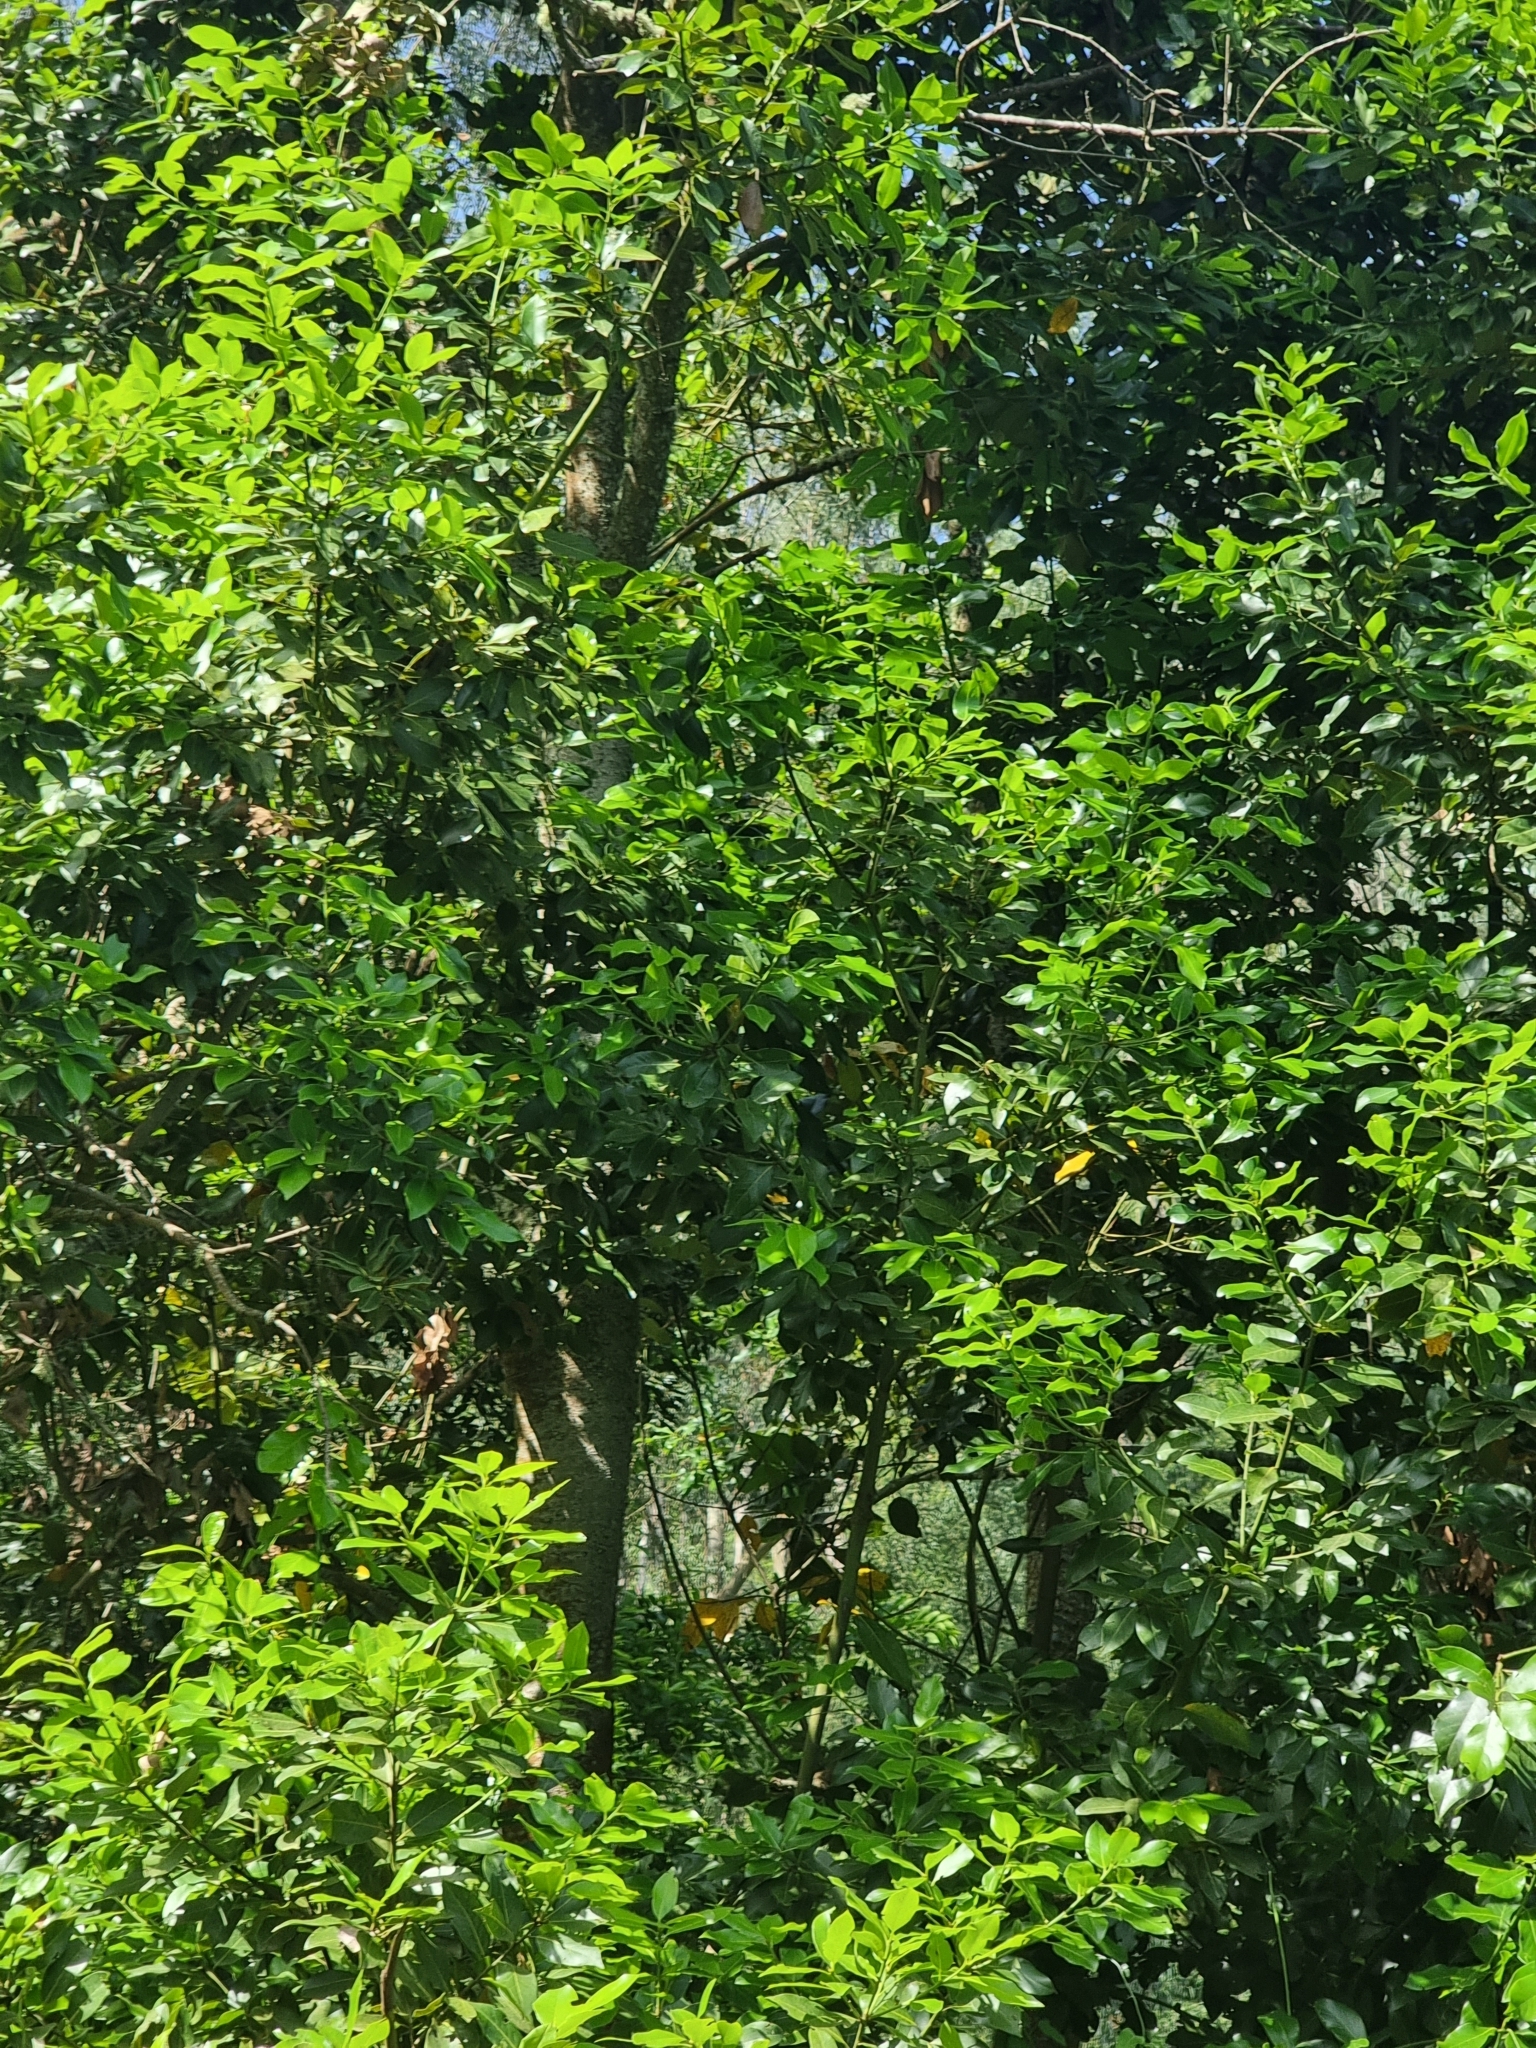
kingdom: Plantae
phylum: Tracheophyta
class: Magnoliopsida
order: Laurales
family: Lauraceae
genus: Laurus
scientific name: Laurus novocanariensis
